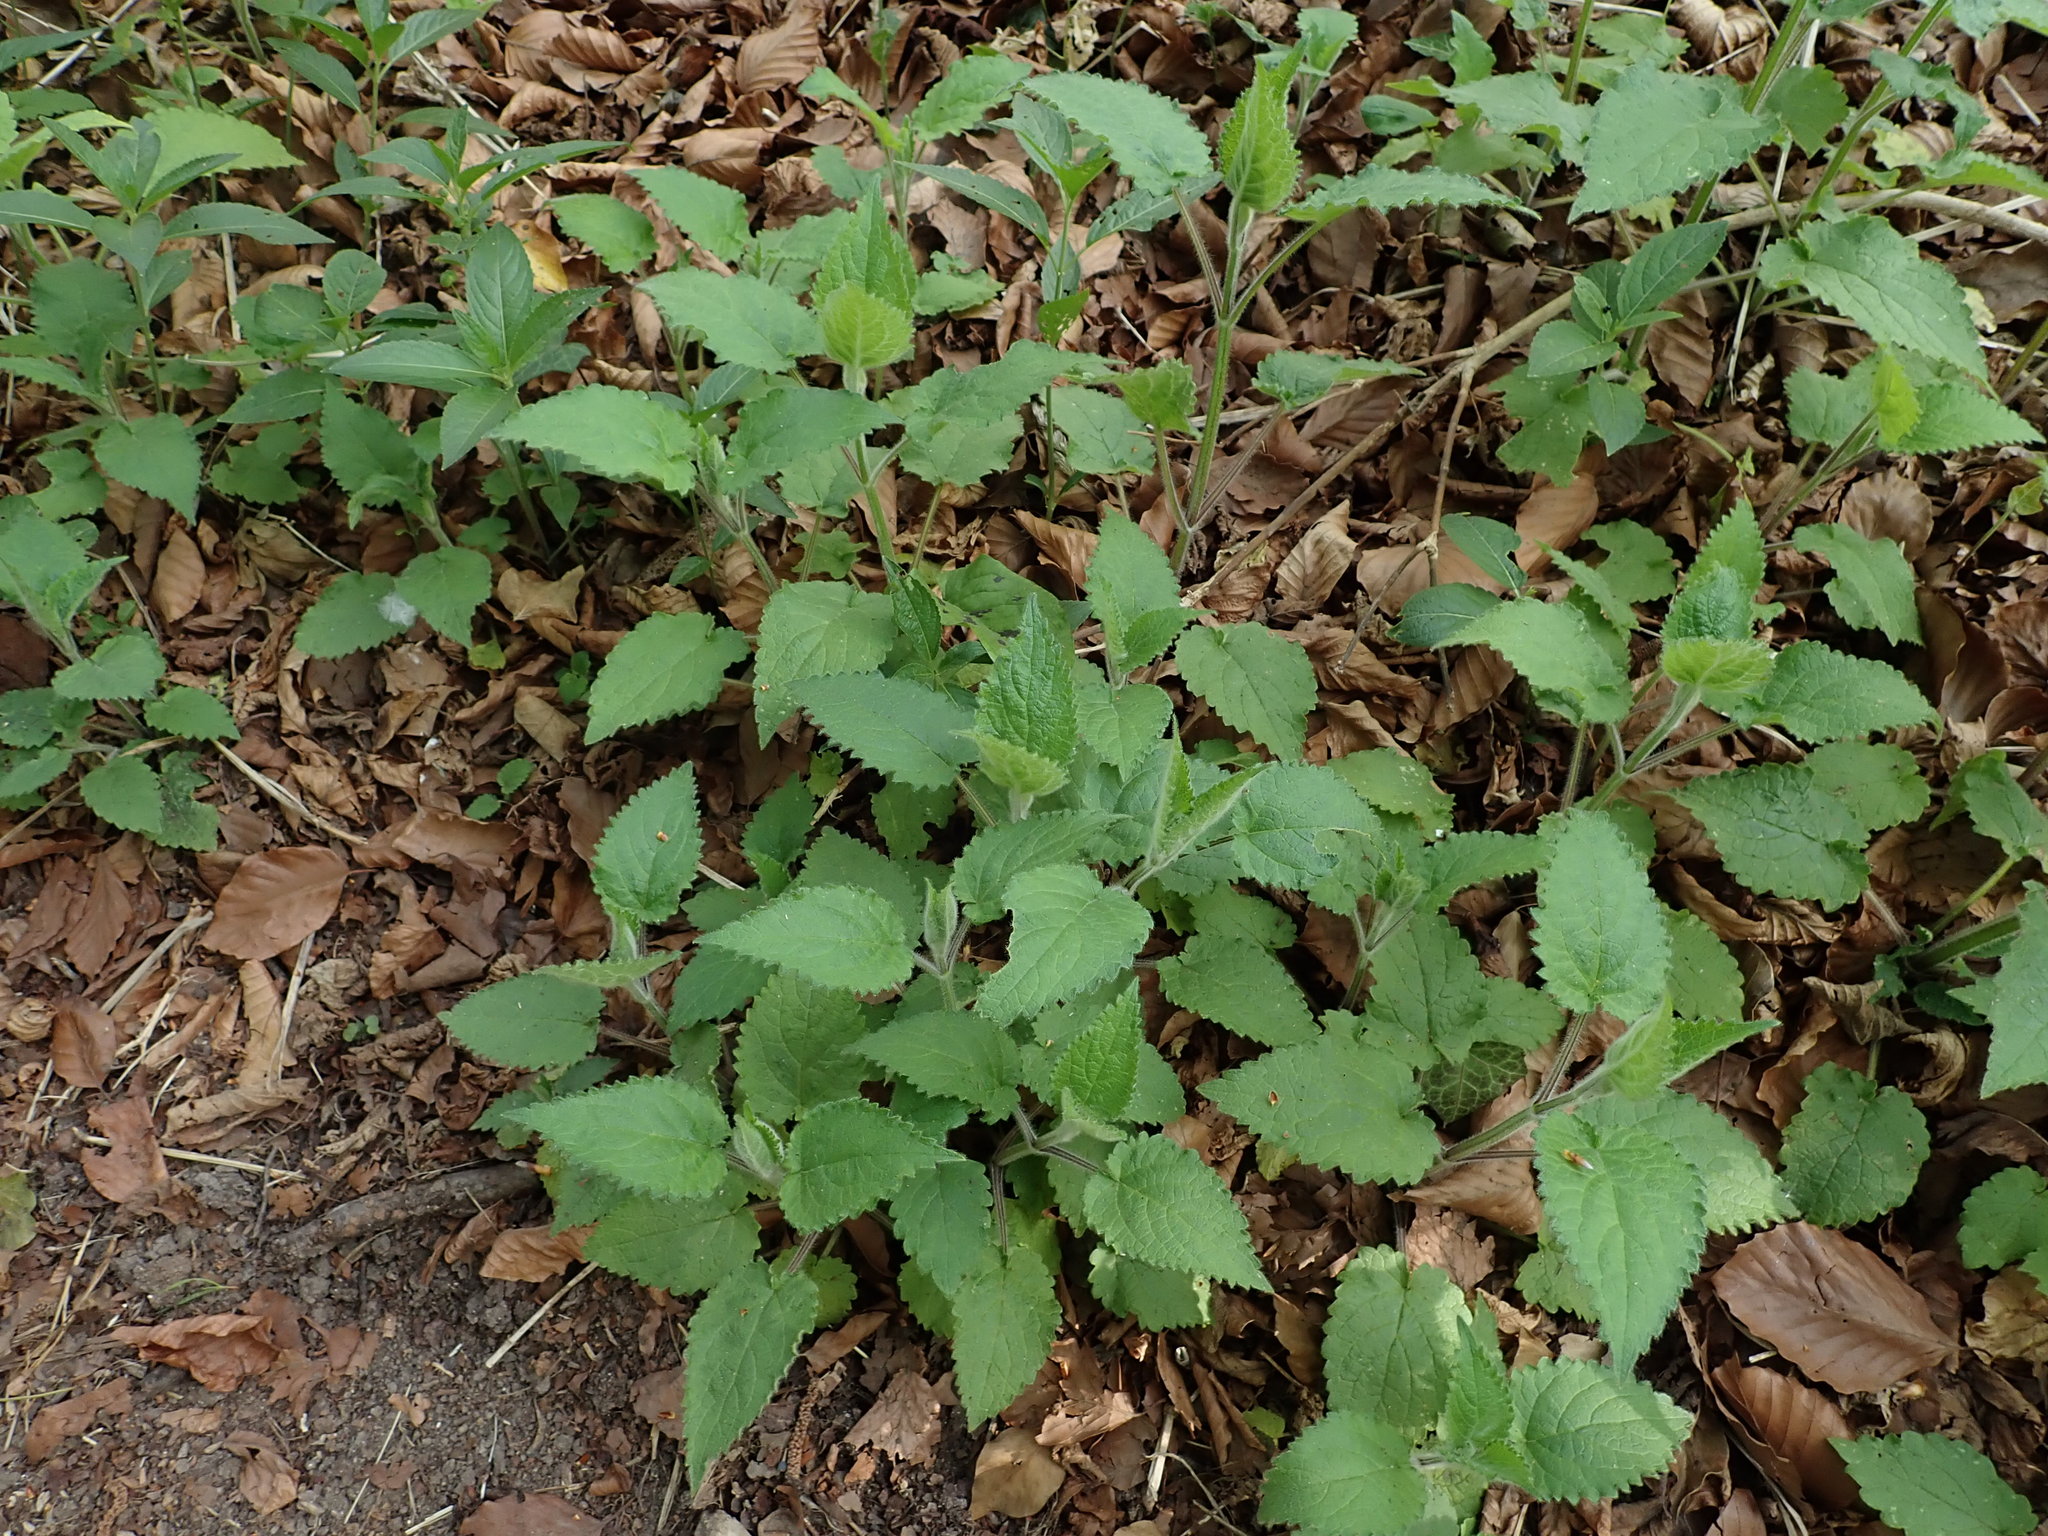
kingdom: Plantae
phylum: Tracheophyta
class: Magnoliopsida
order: Lamiales
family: Lamiaceae
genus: Stachys
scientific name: Stachys sylvatica
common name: Hedge woundwort
